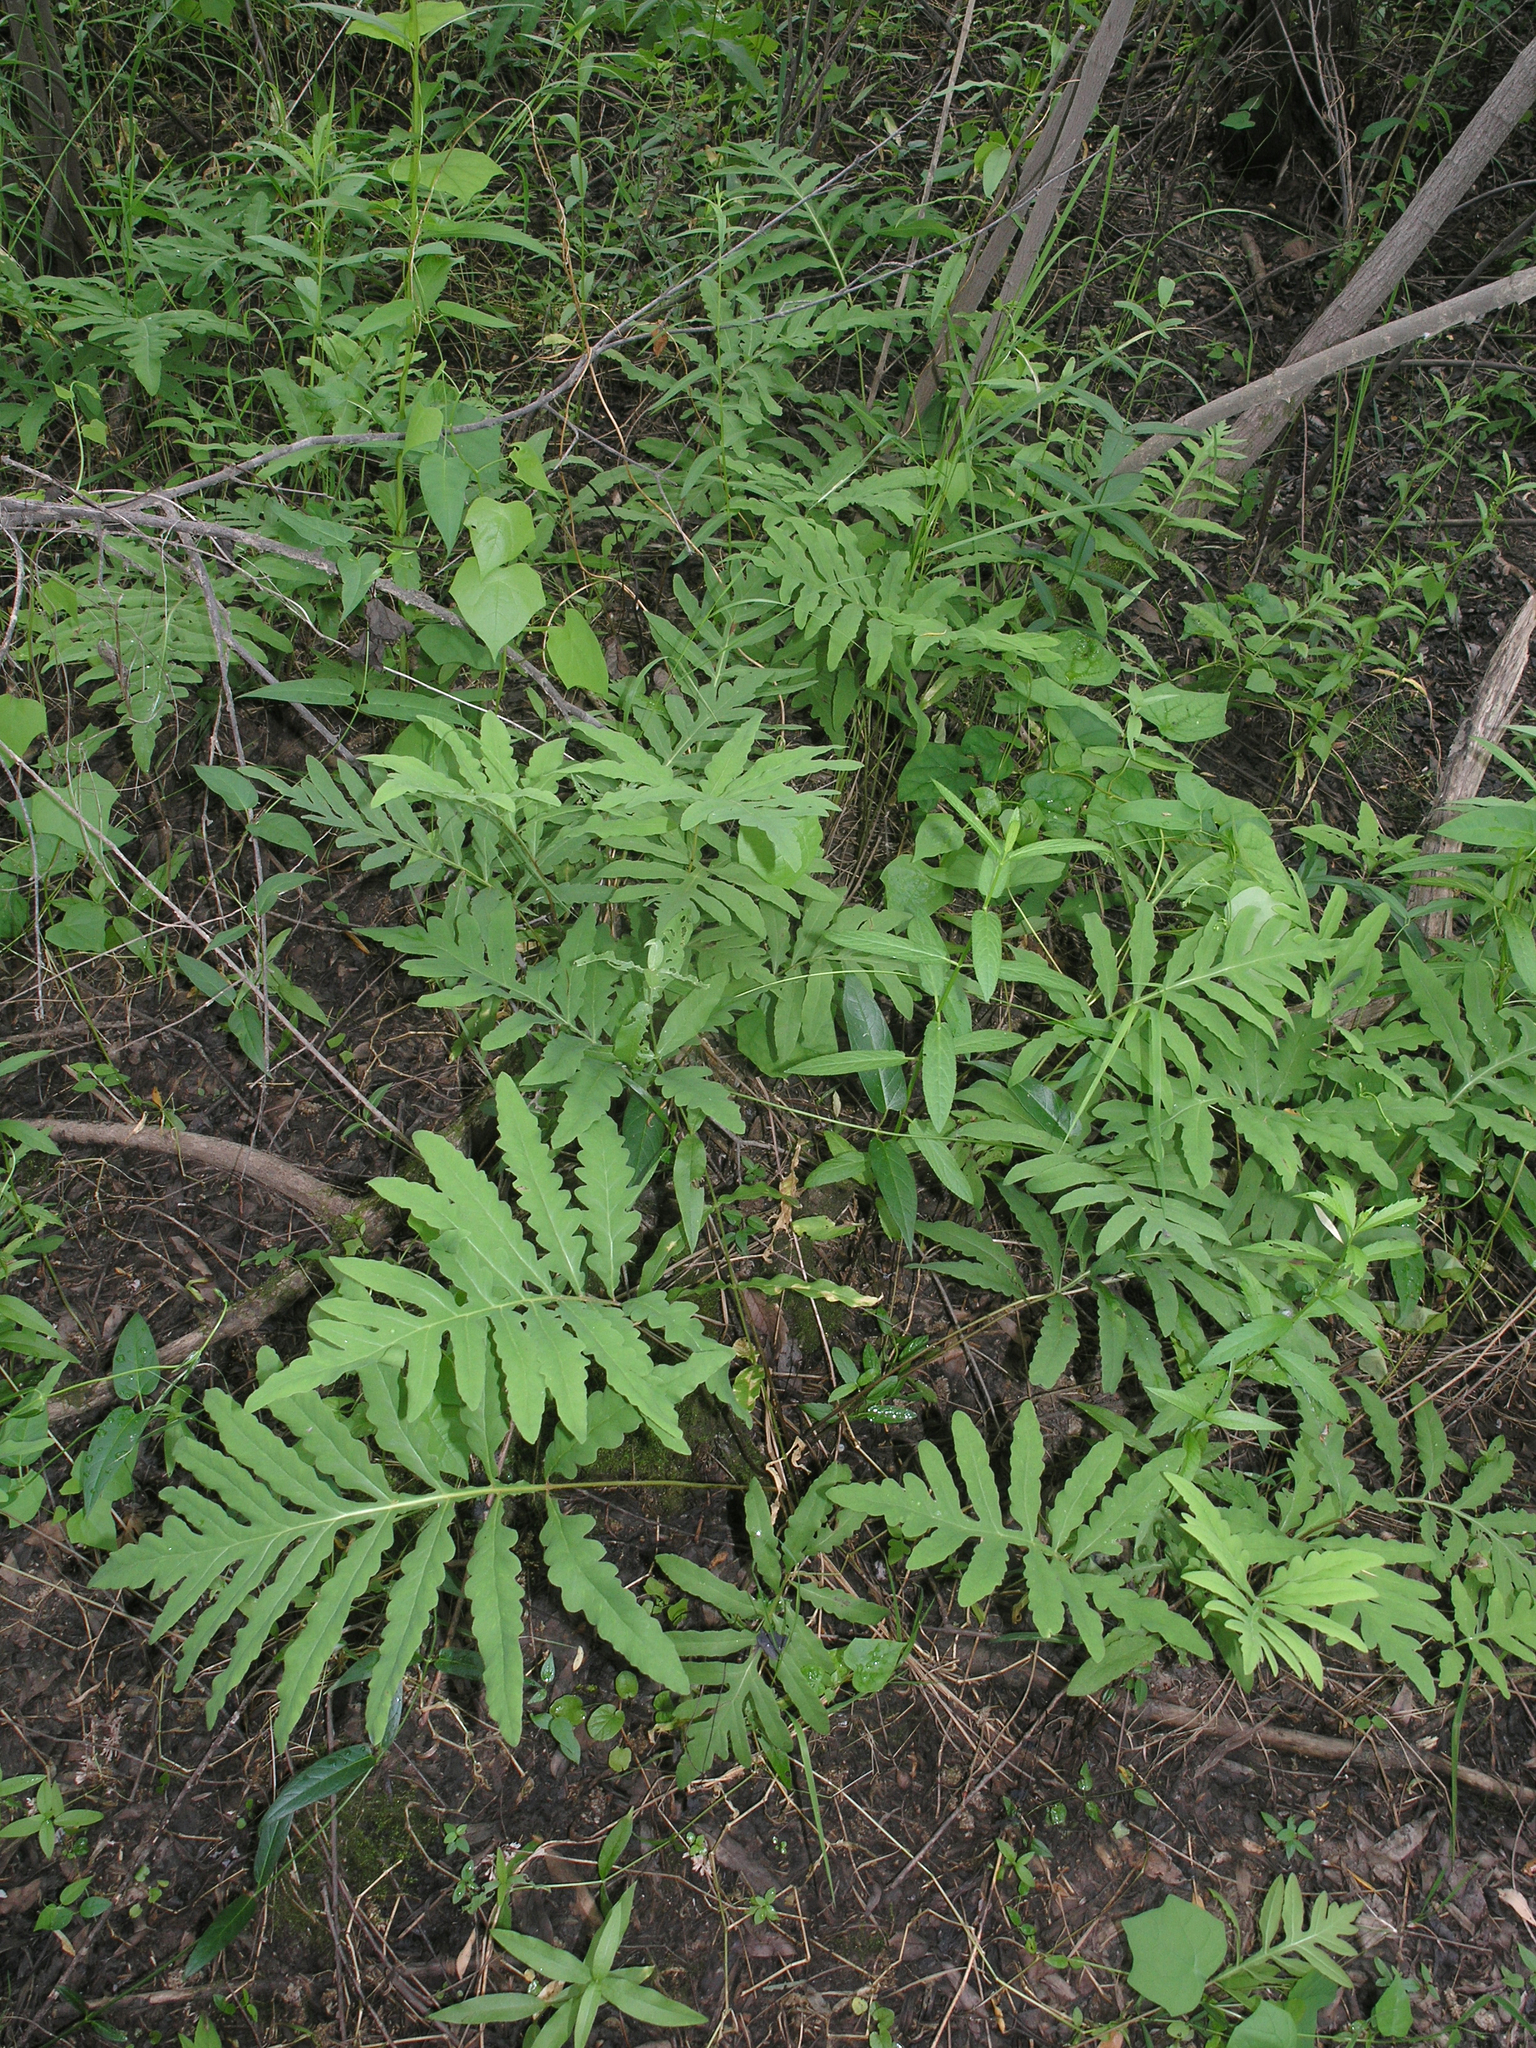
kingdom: Plantae
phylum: Tracheophyta
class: Polypodiopsida
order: Polypodiales
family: Onocleaceae
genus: Onoclea
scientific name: Onoclea sensibilis
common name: Sensitive fern
